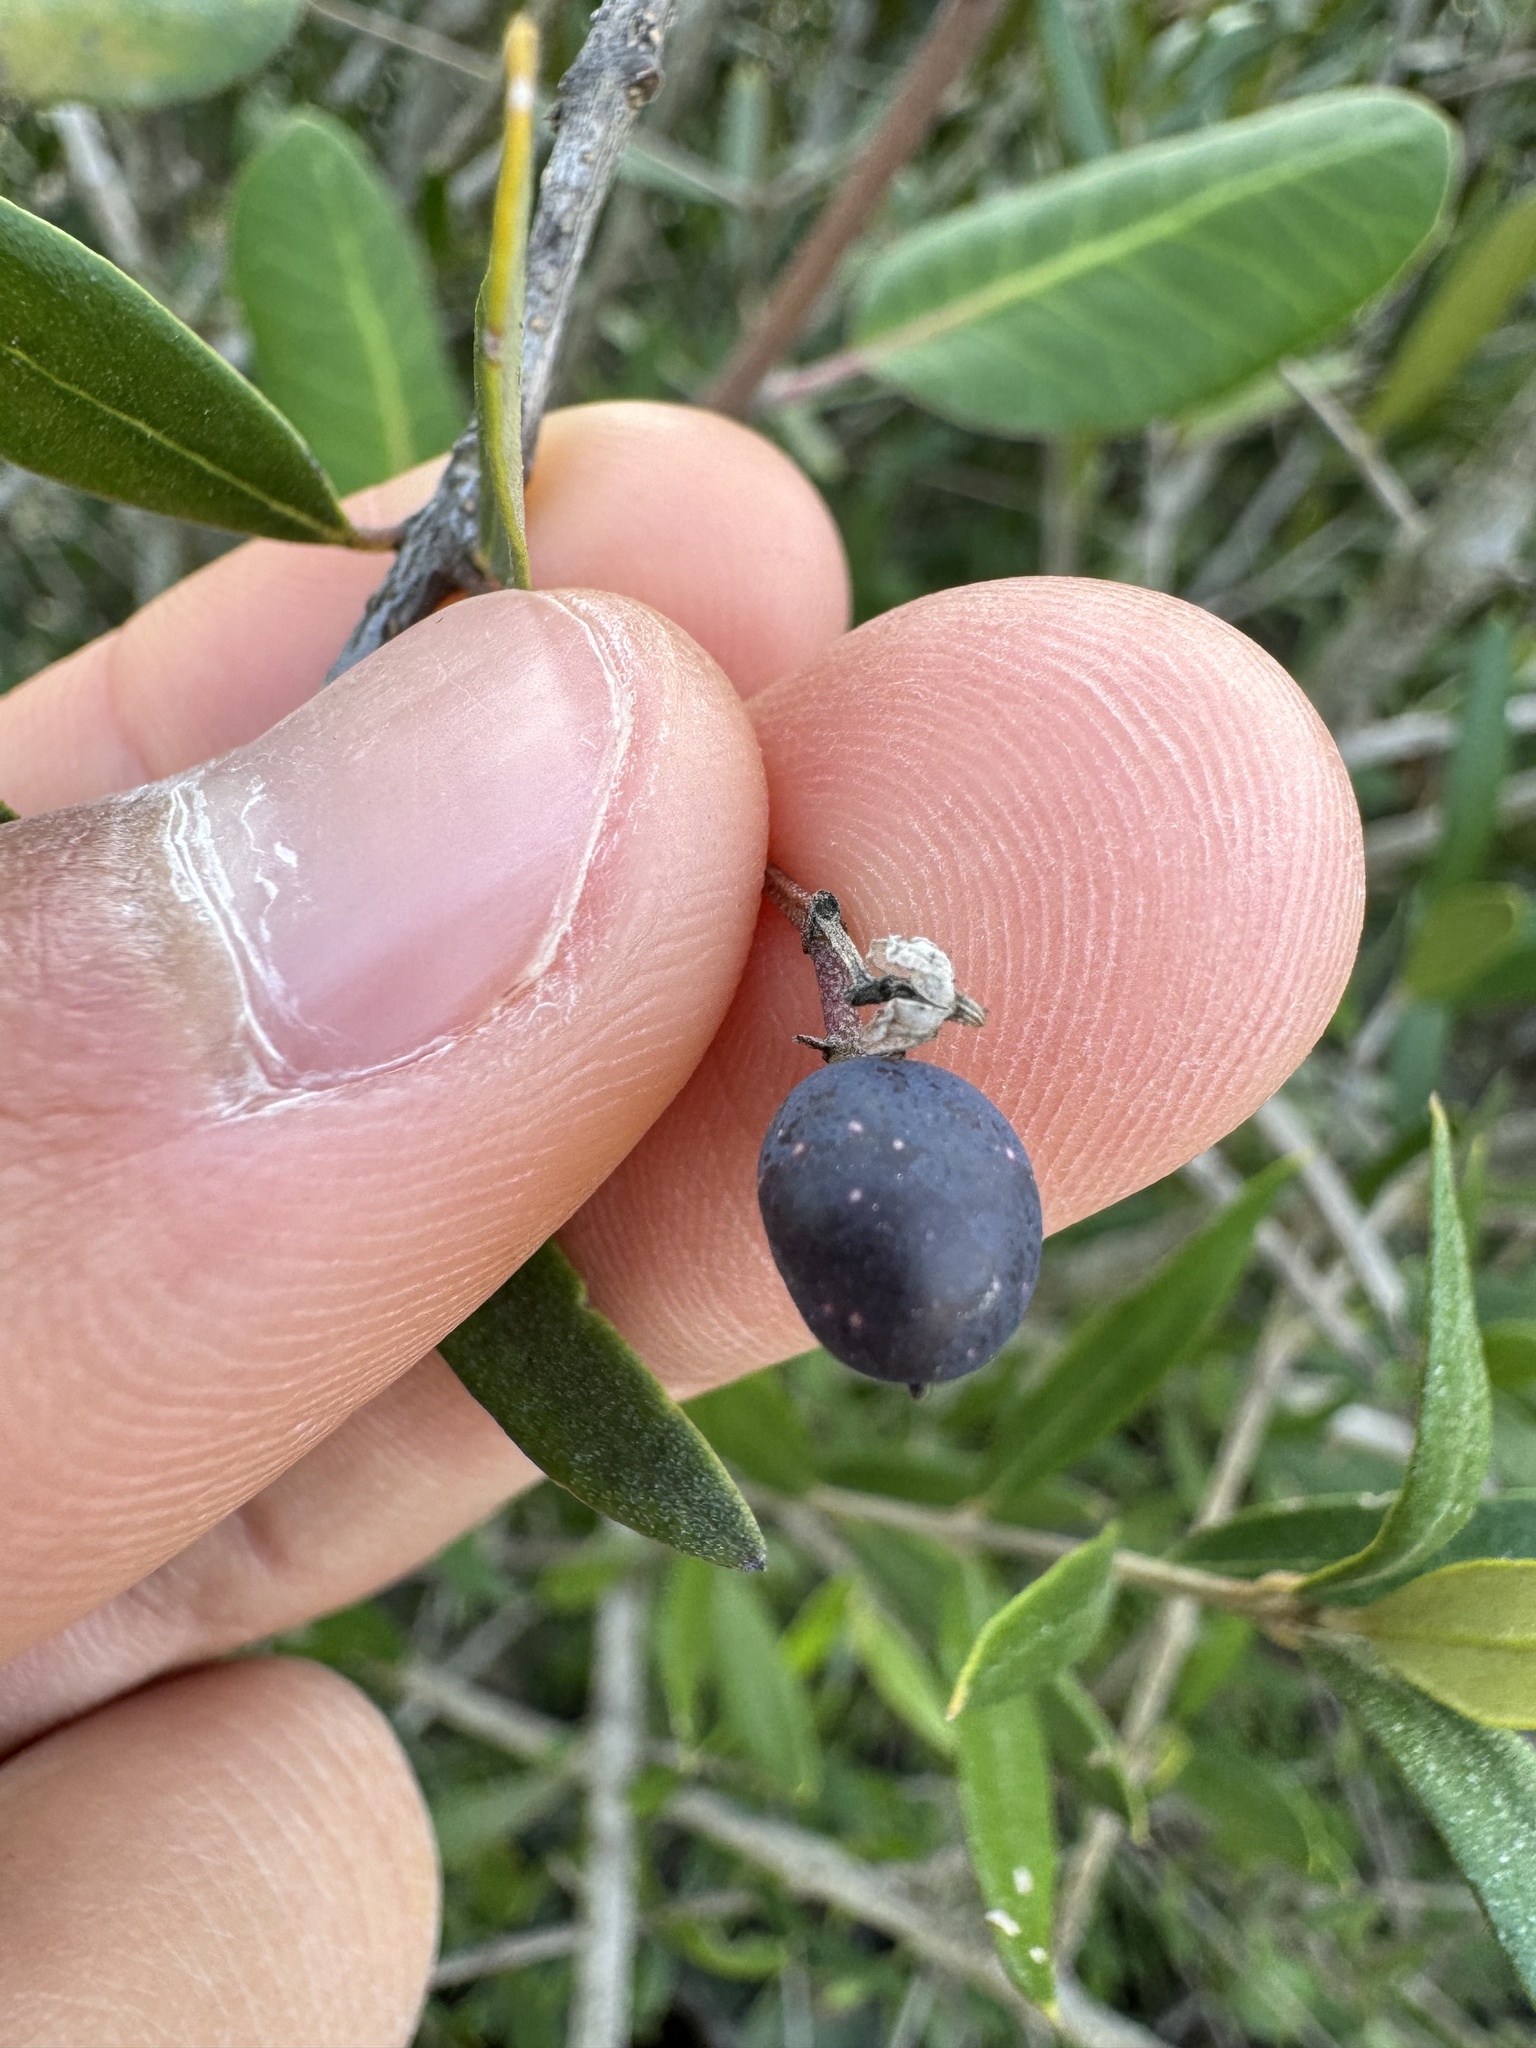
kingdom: Plantae
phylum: Tracheophyta
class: Magnoliopsida
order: Lamiales
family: Oleaceae
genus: Olea
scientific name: Olea europaea
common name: Olive
